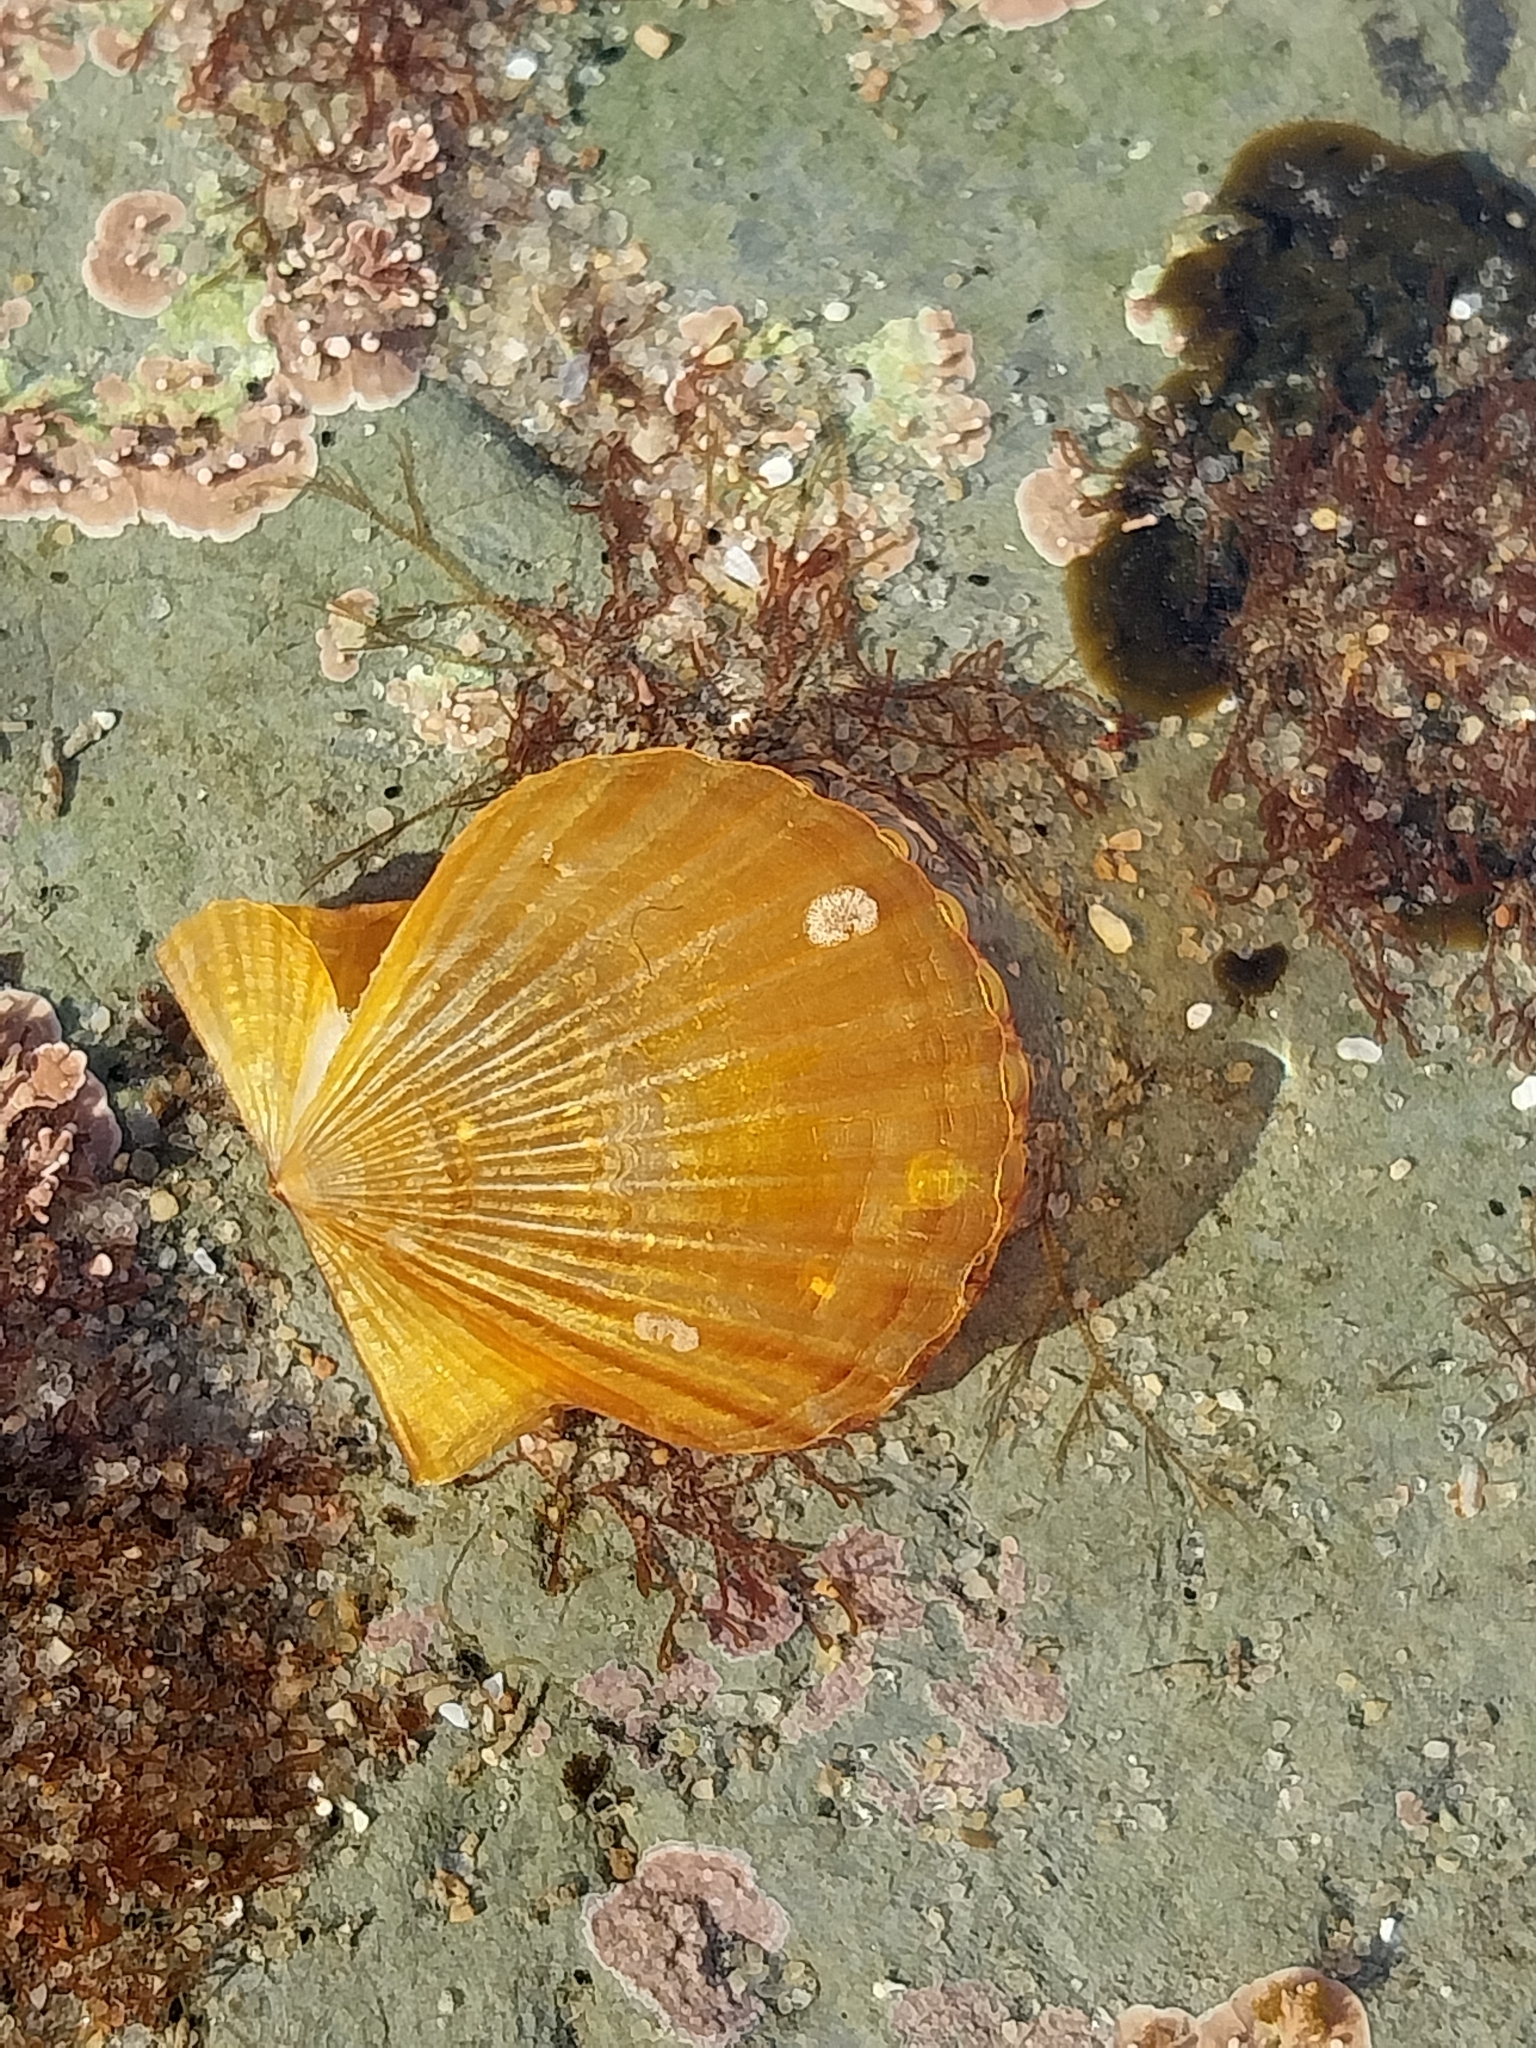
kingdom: Animalia
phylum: Mollusca
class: Bivalvia
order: Pectinida
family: Pectinidae
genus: Leptopecten
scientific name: Leptopecten latiauratus
